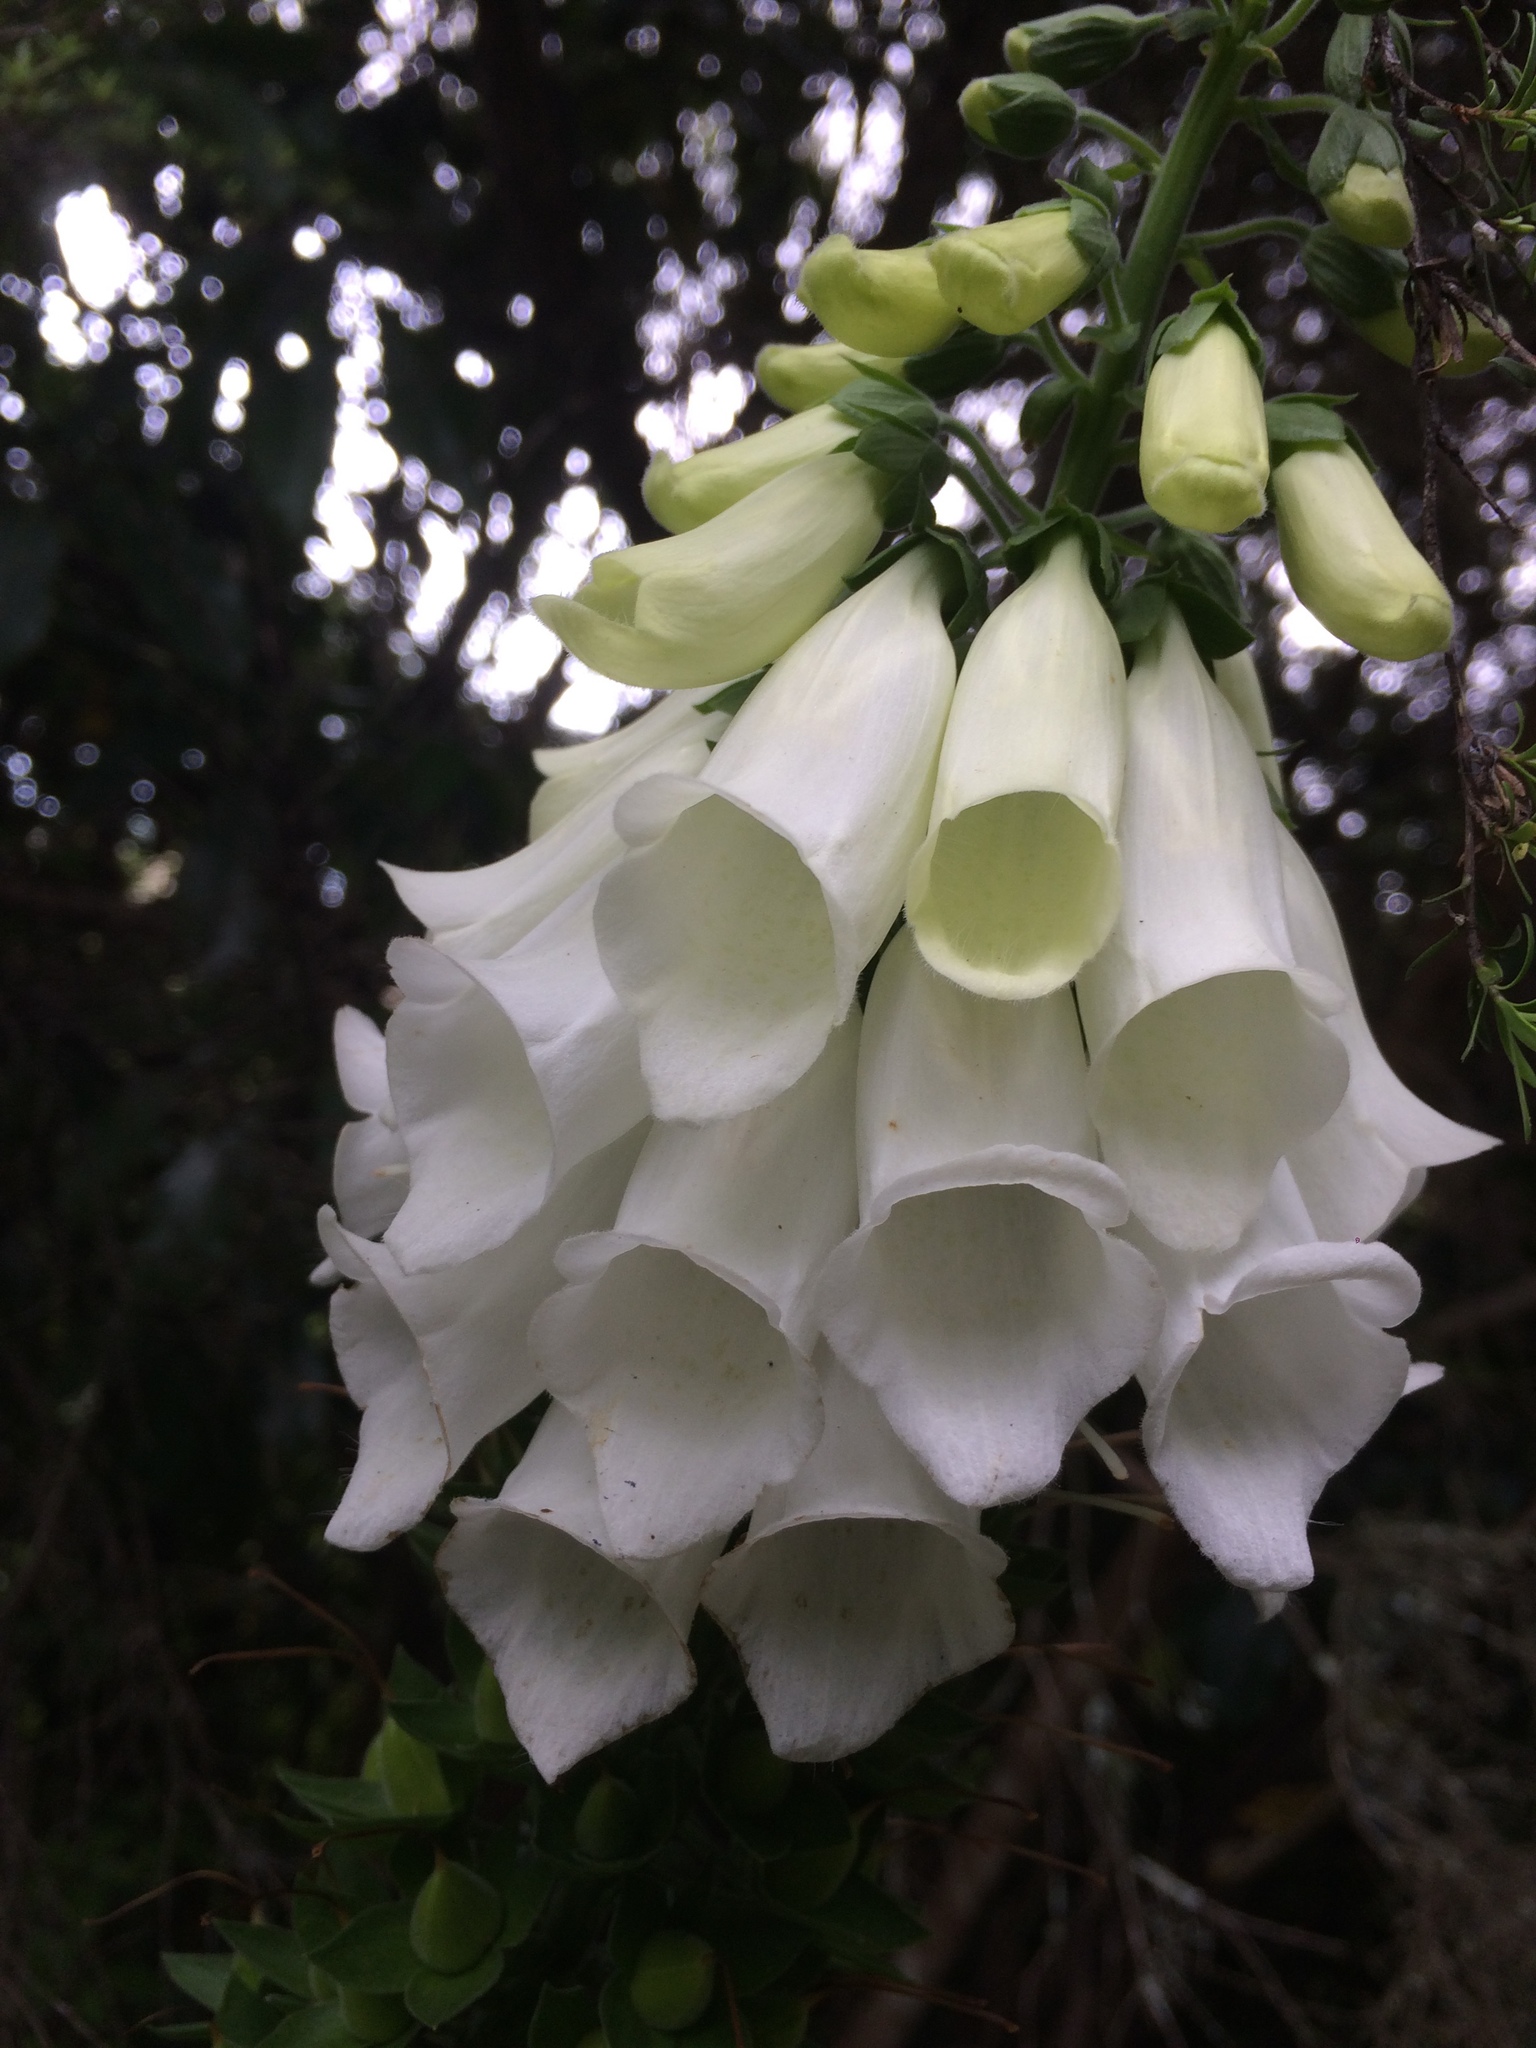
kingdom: Plantae
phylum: Tracheophyta
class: Magnoliopsida
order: Lamiales
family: Plantaginaceae
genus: Digitalis
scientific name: Digitalis purpurea
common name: Foxglove
